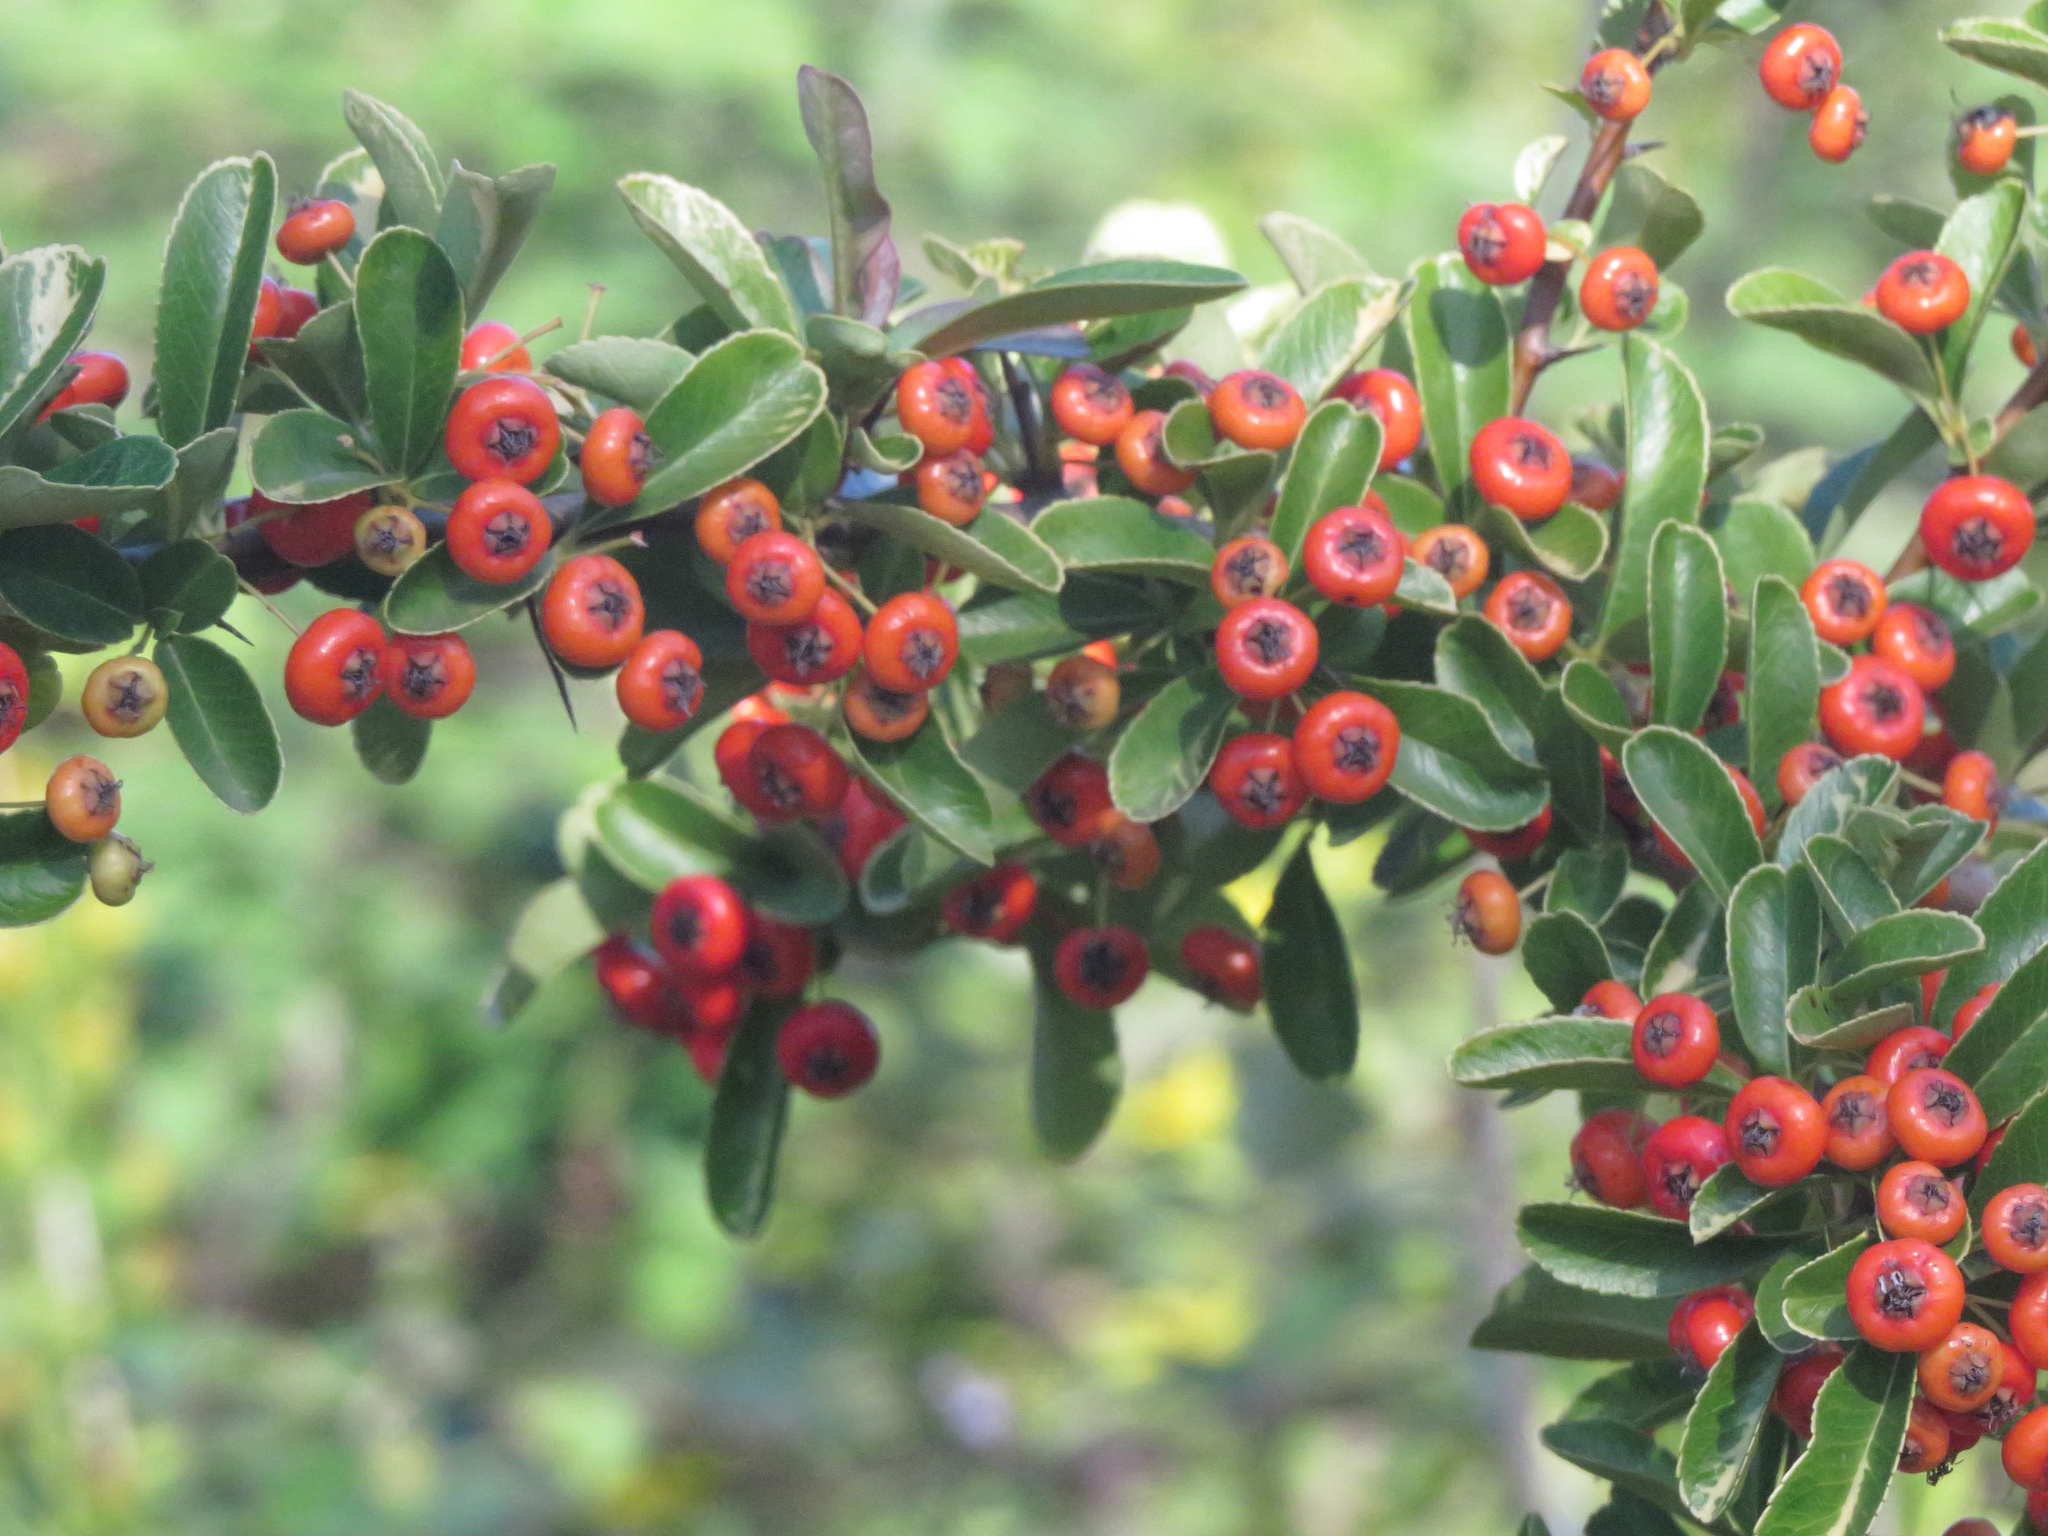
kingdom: Plantae
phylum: Tracheophyta
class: Magnoliopsida
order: Rosales
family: Rosaceae
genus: Pyracantha
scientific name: Pyracantha crenulata
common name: Nepalese firethorn
